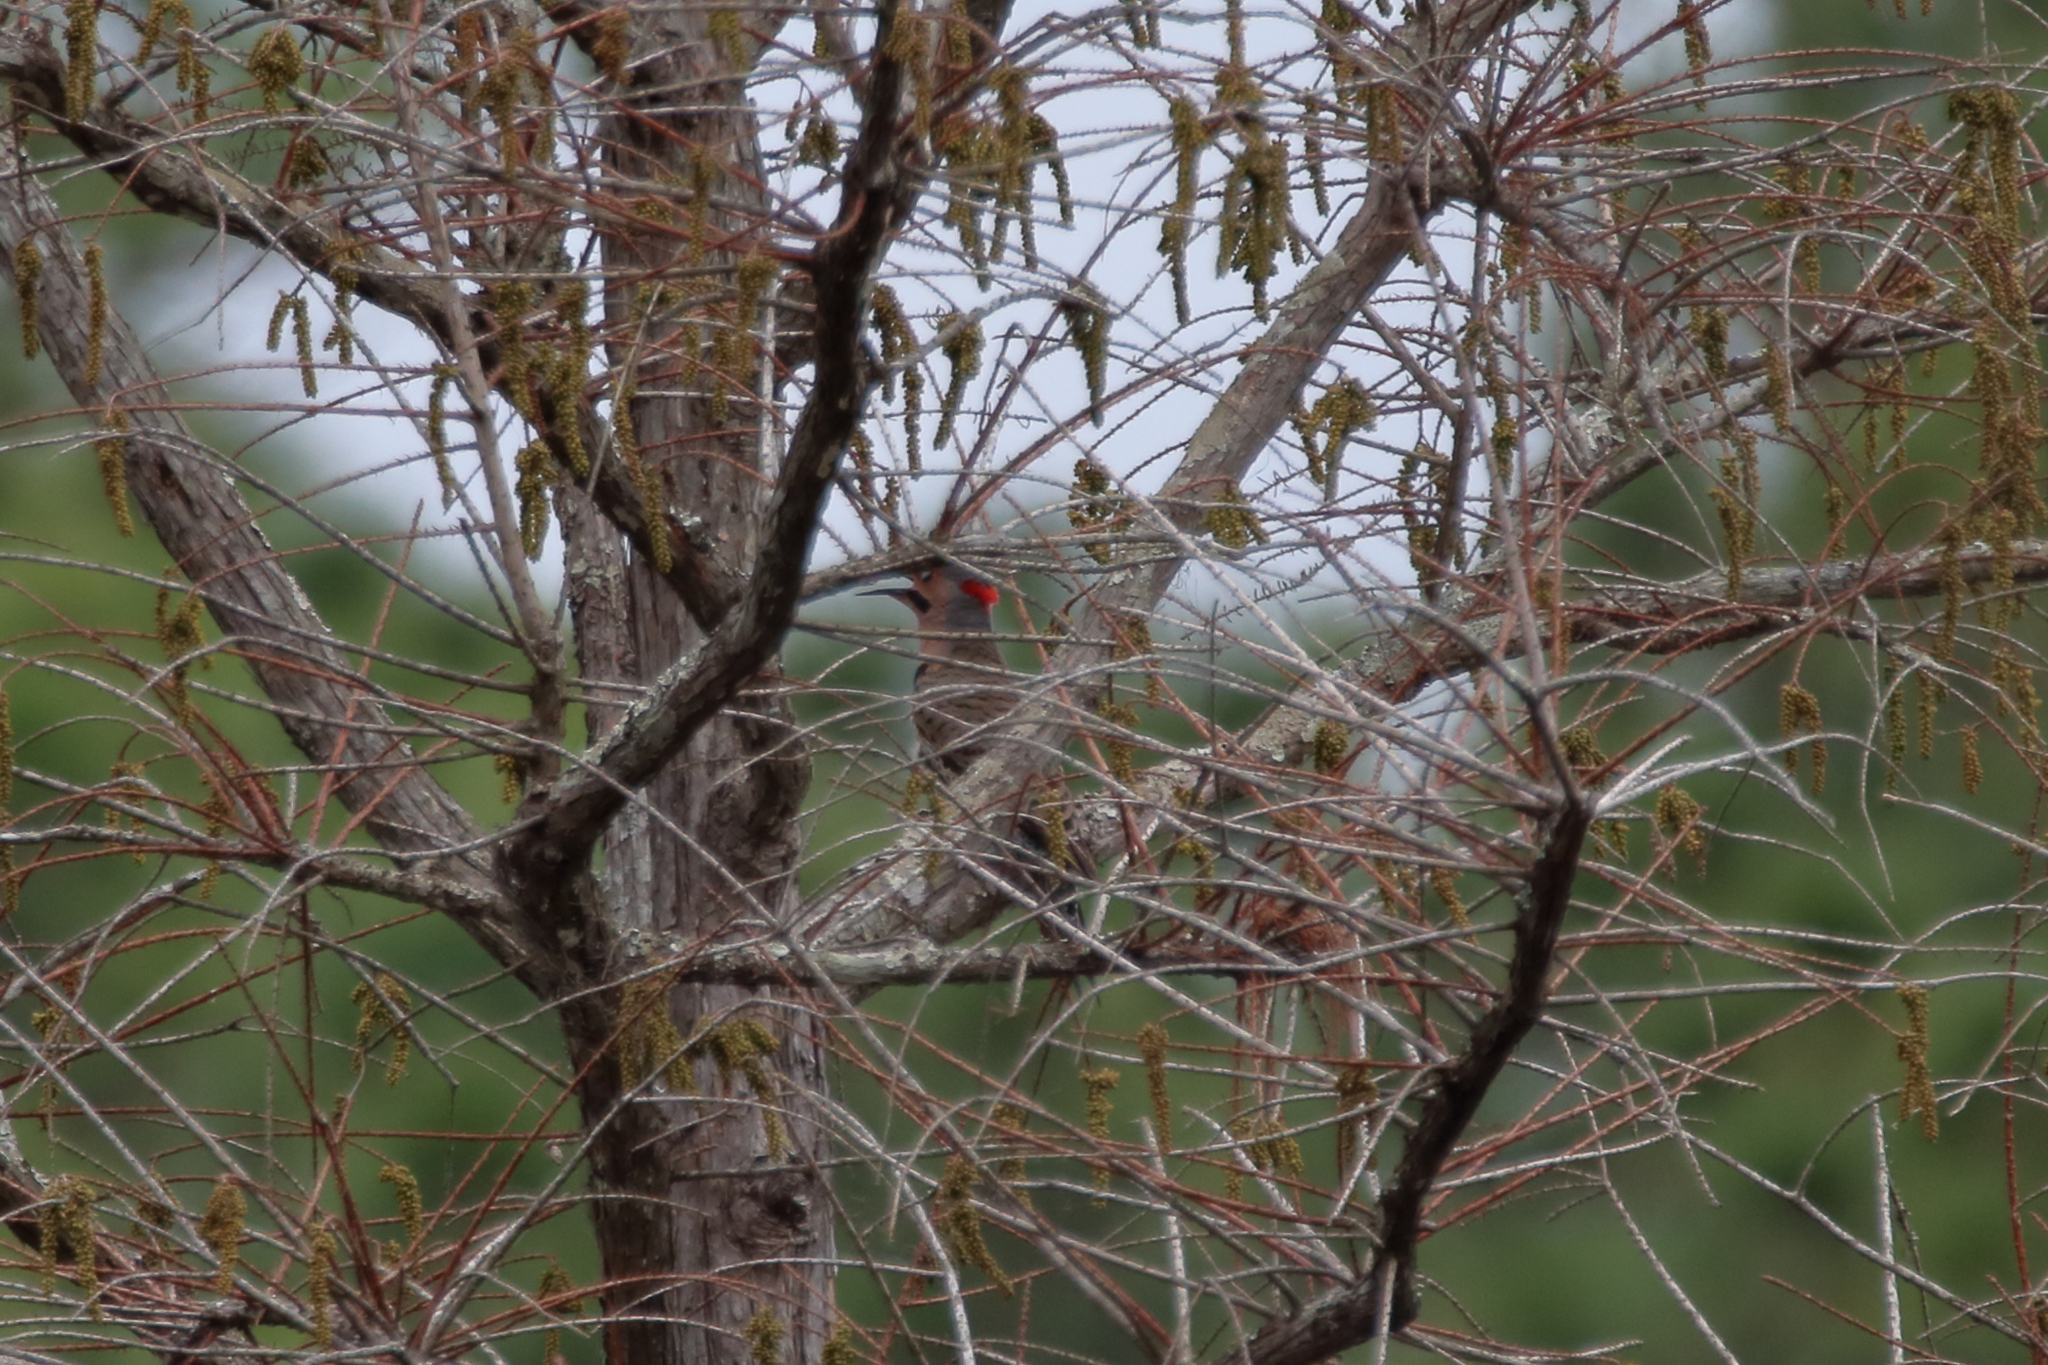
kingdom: Animalia
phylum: Chordata
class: Aves
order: Piciformes
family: Picidae
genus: Colaptes
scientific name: Colaptes auratus
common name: Northern flicker
